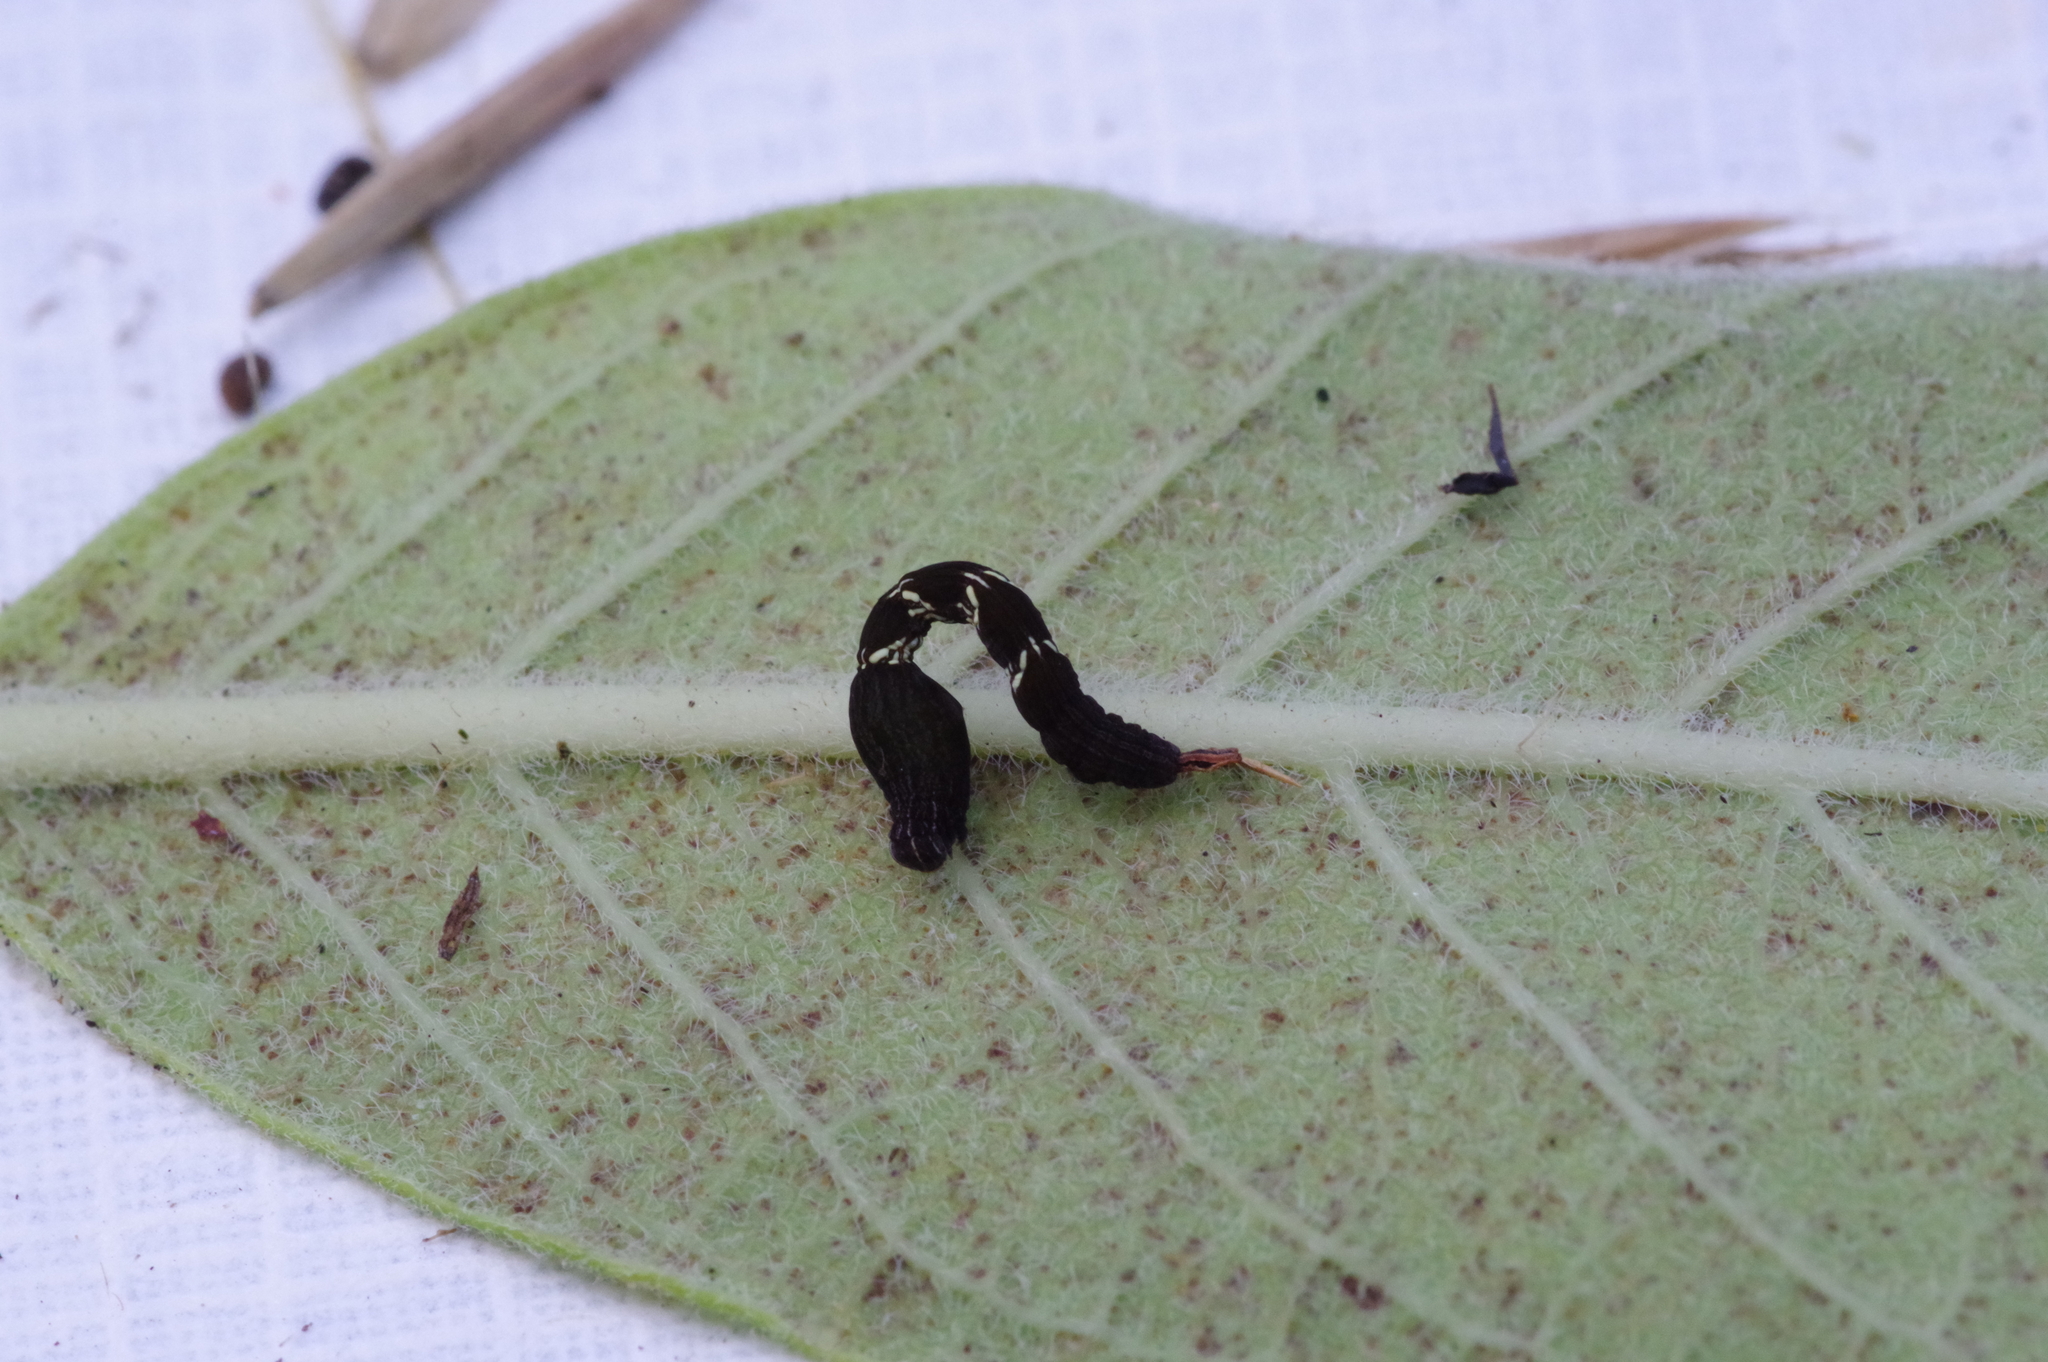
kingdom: Animalia
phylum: Arthropoda
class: Insecta
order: Lepidoptera
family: Geometridae
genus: Timandra
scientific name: Timandra amaturaria
